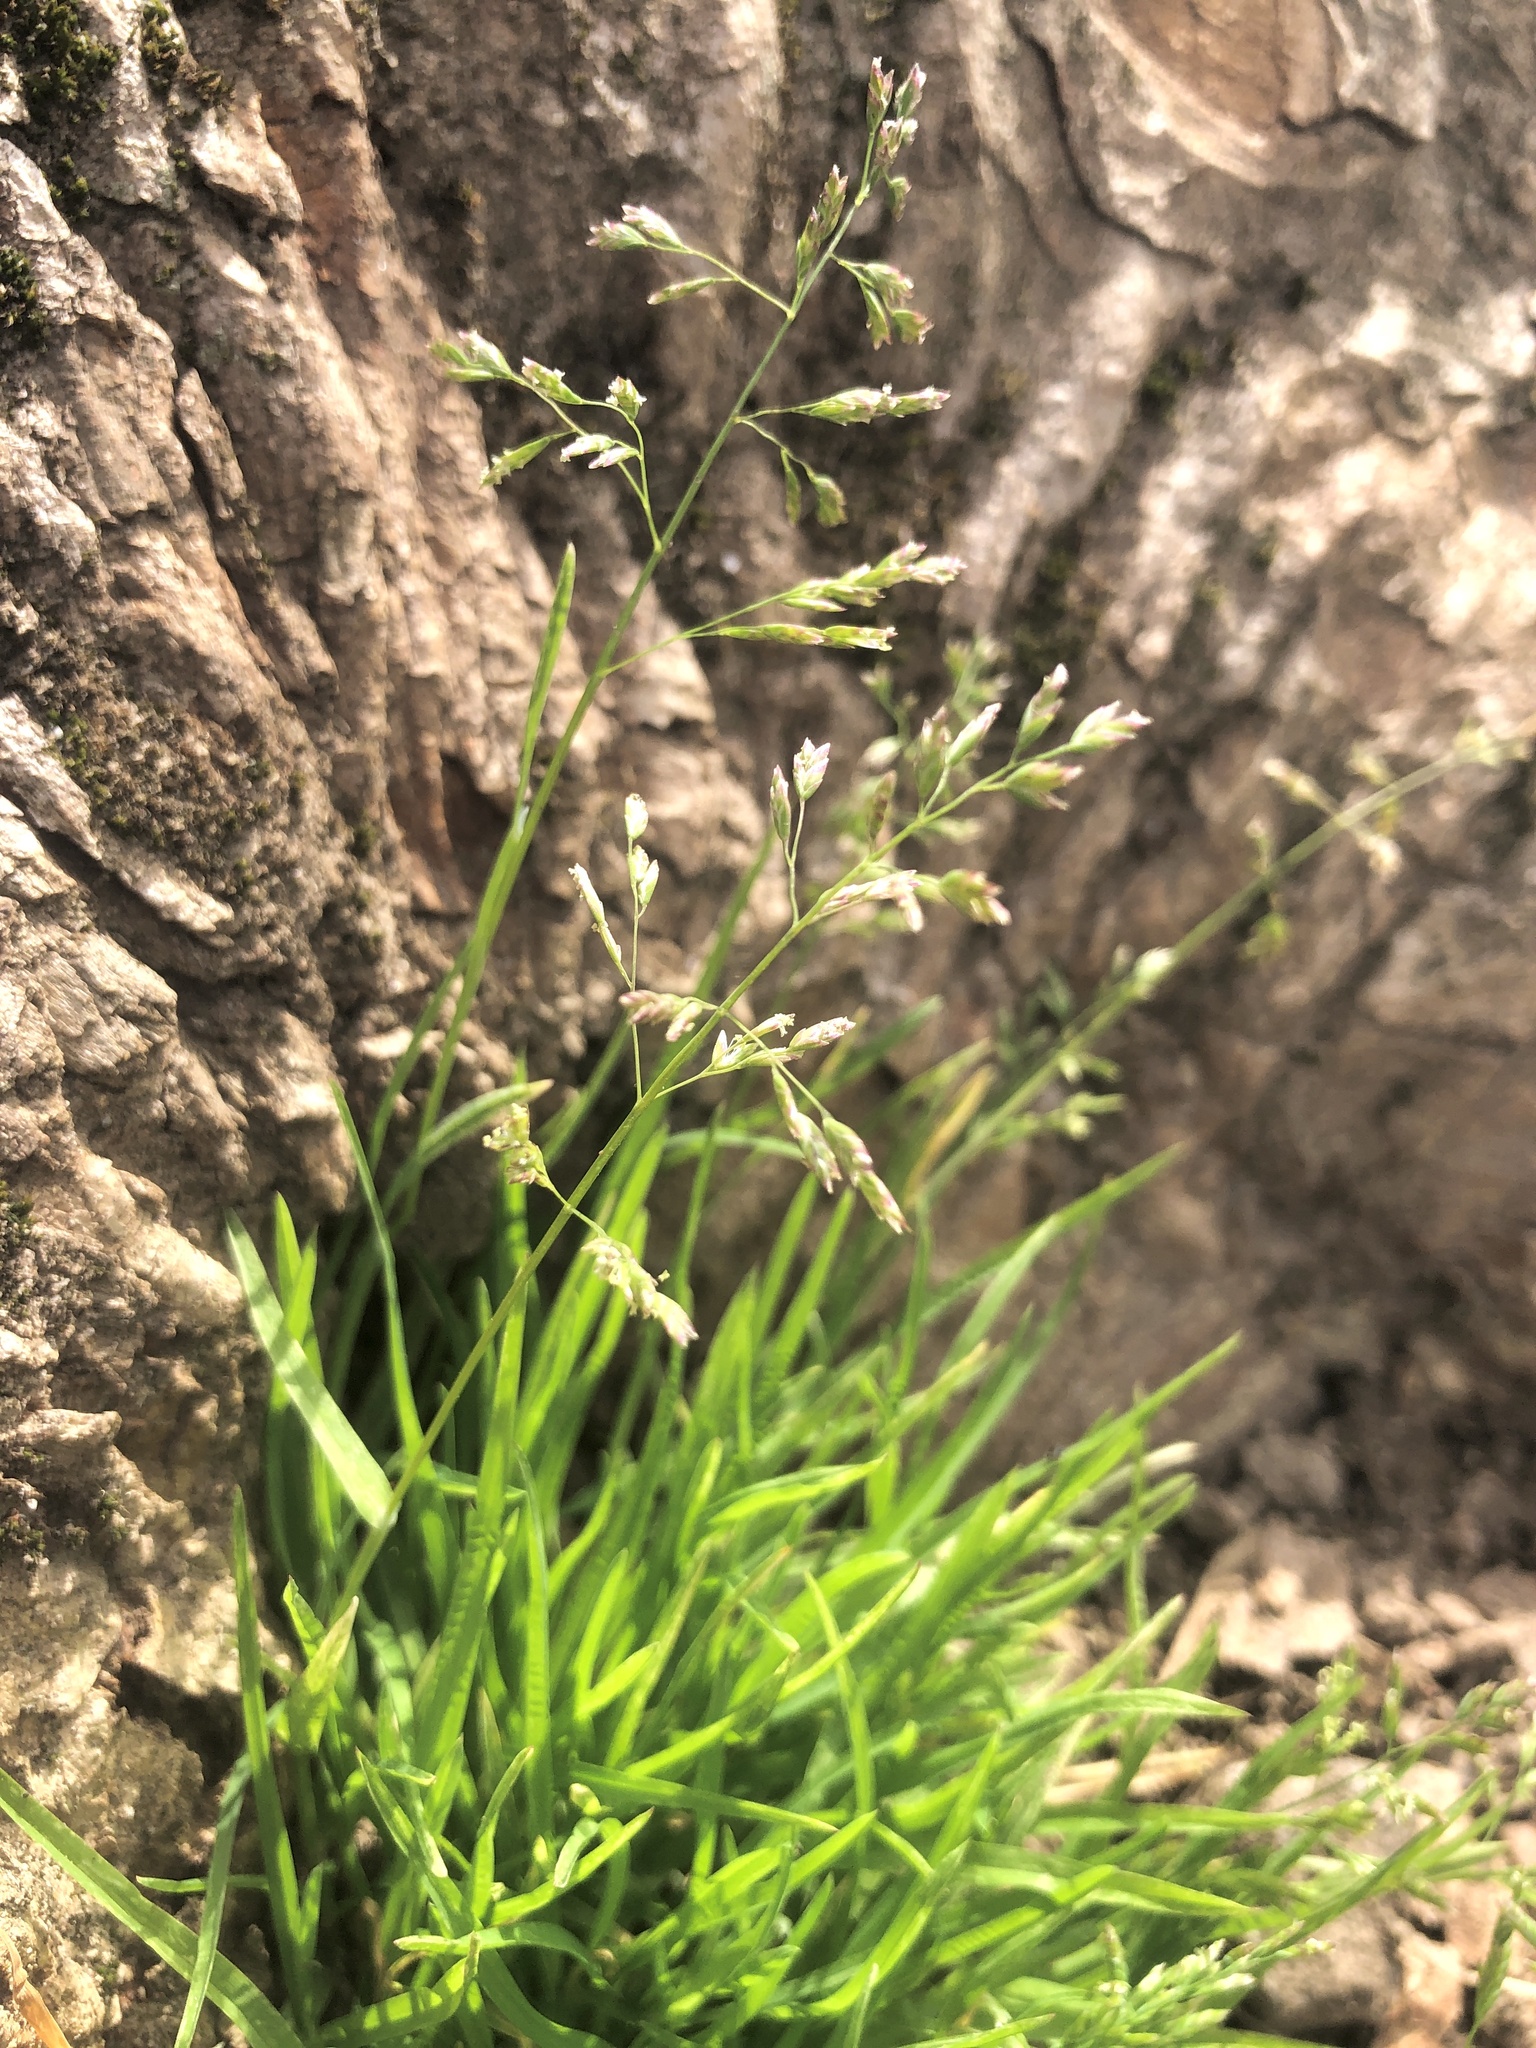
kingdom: Plantae
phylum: Tracheophyta
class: Liliopsida
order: Poales
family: Poaceae
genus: Poa
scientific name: Poa annua
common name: Annual bluegrass
